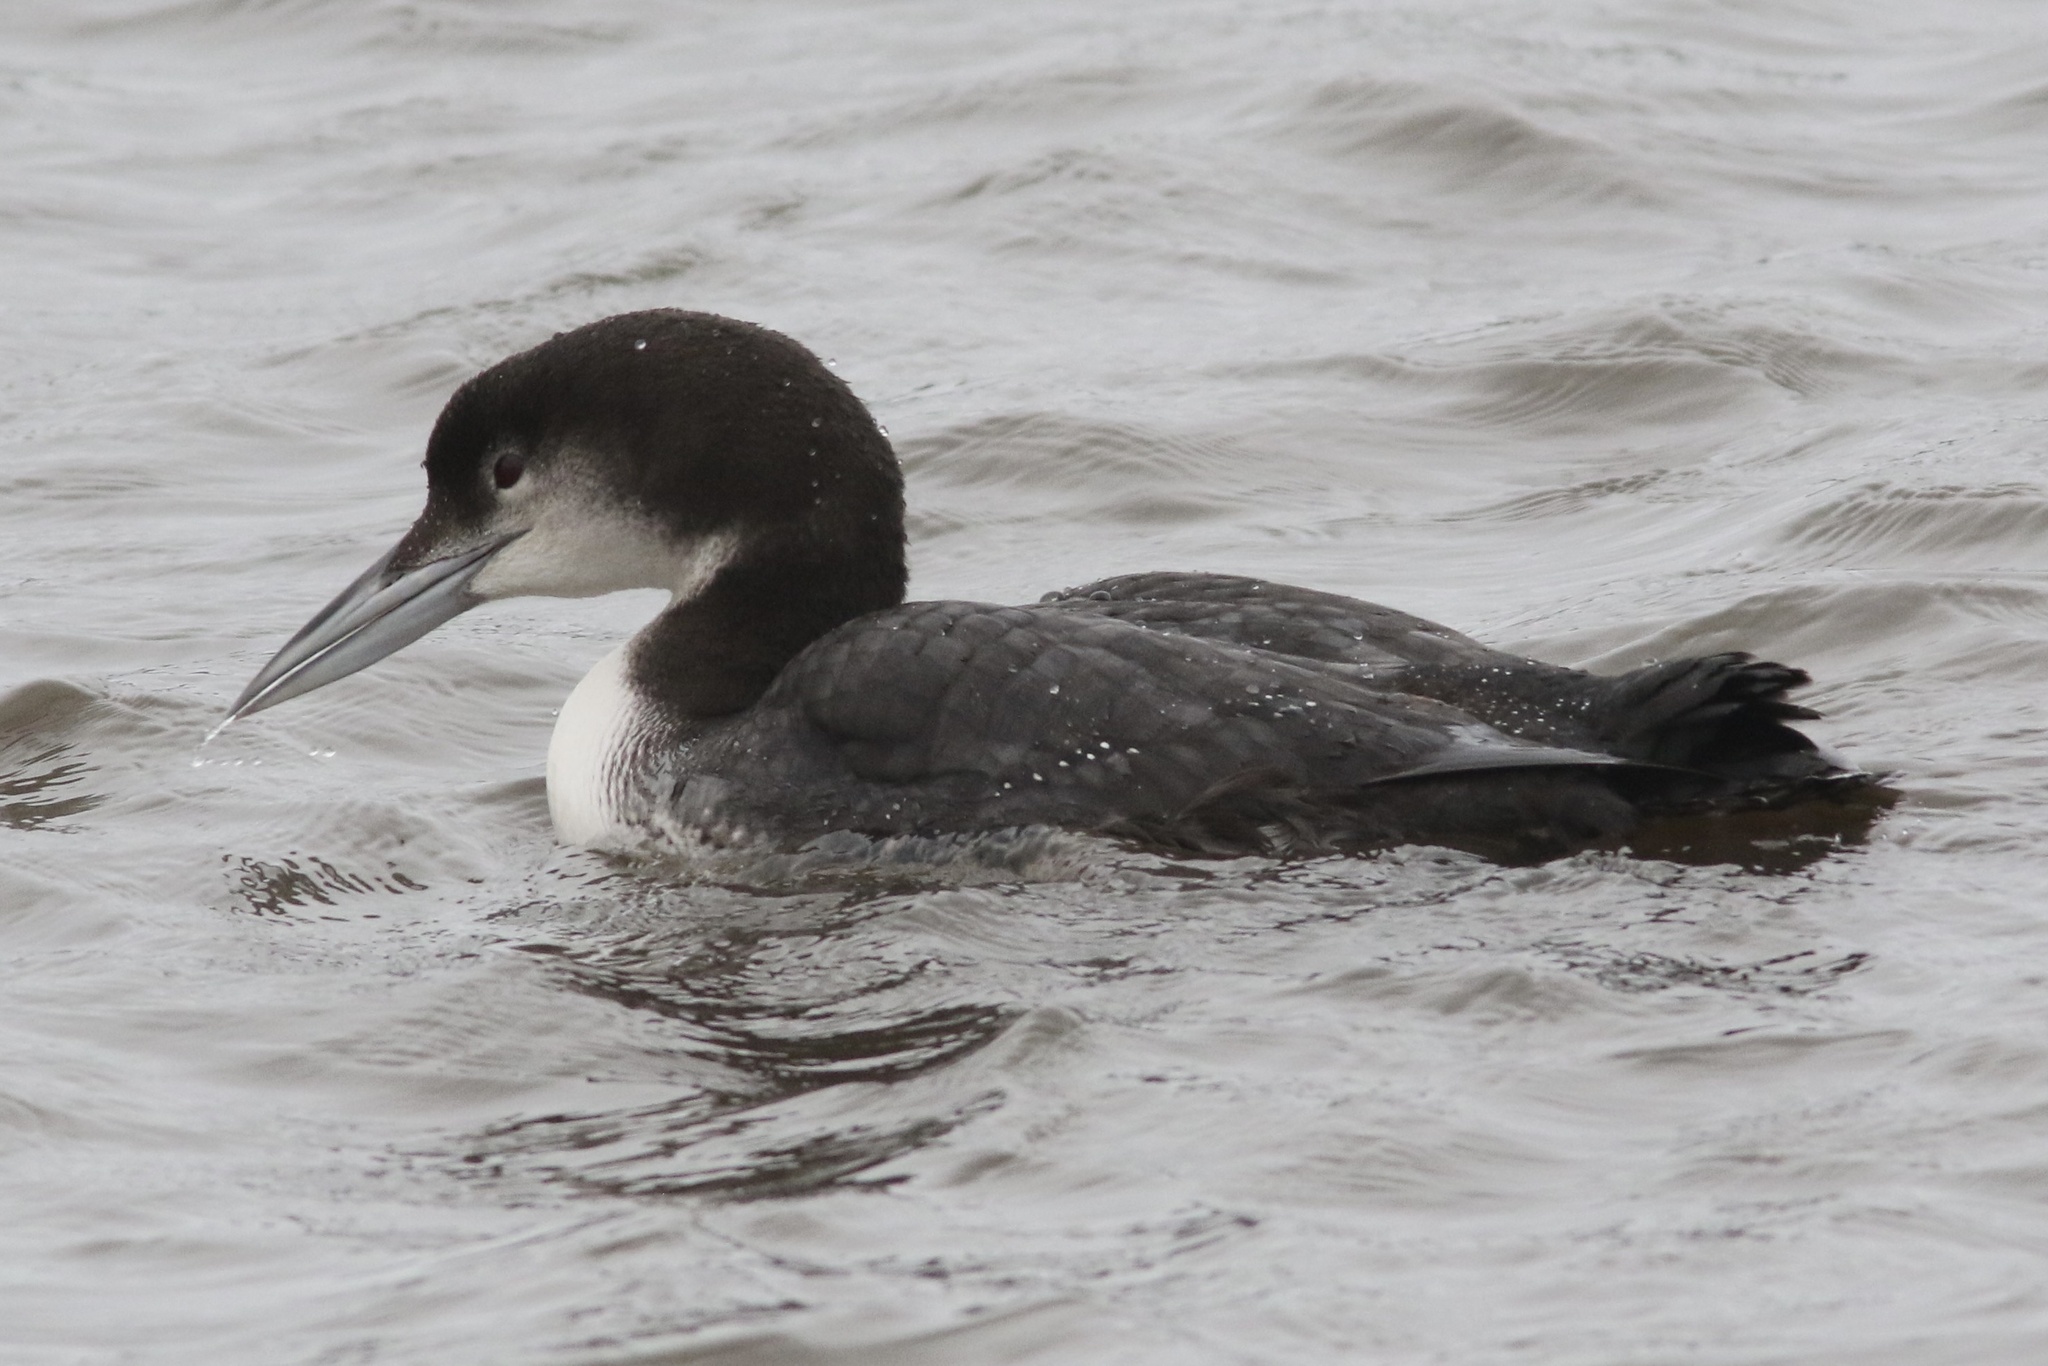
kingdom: Animalia
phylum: Chordata
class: Aves
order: Gaviiformes
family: Gaviidae
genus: Gavia
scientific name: Gavia immer
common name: Common loon
